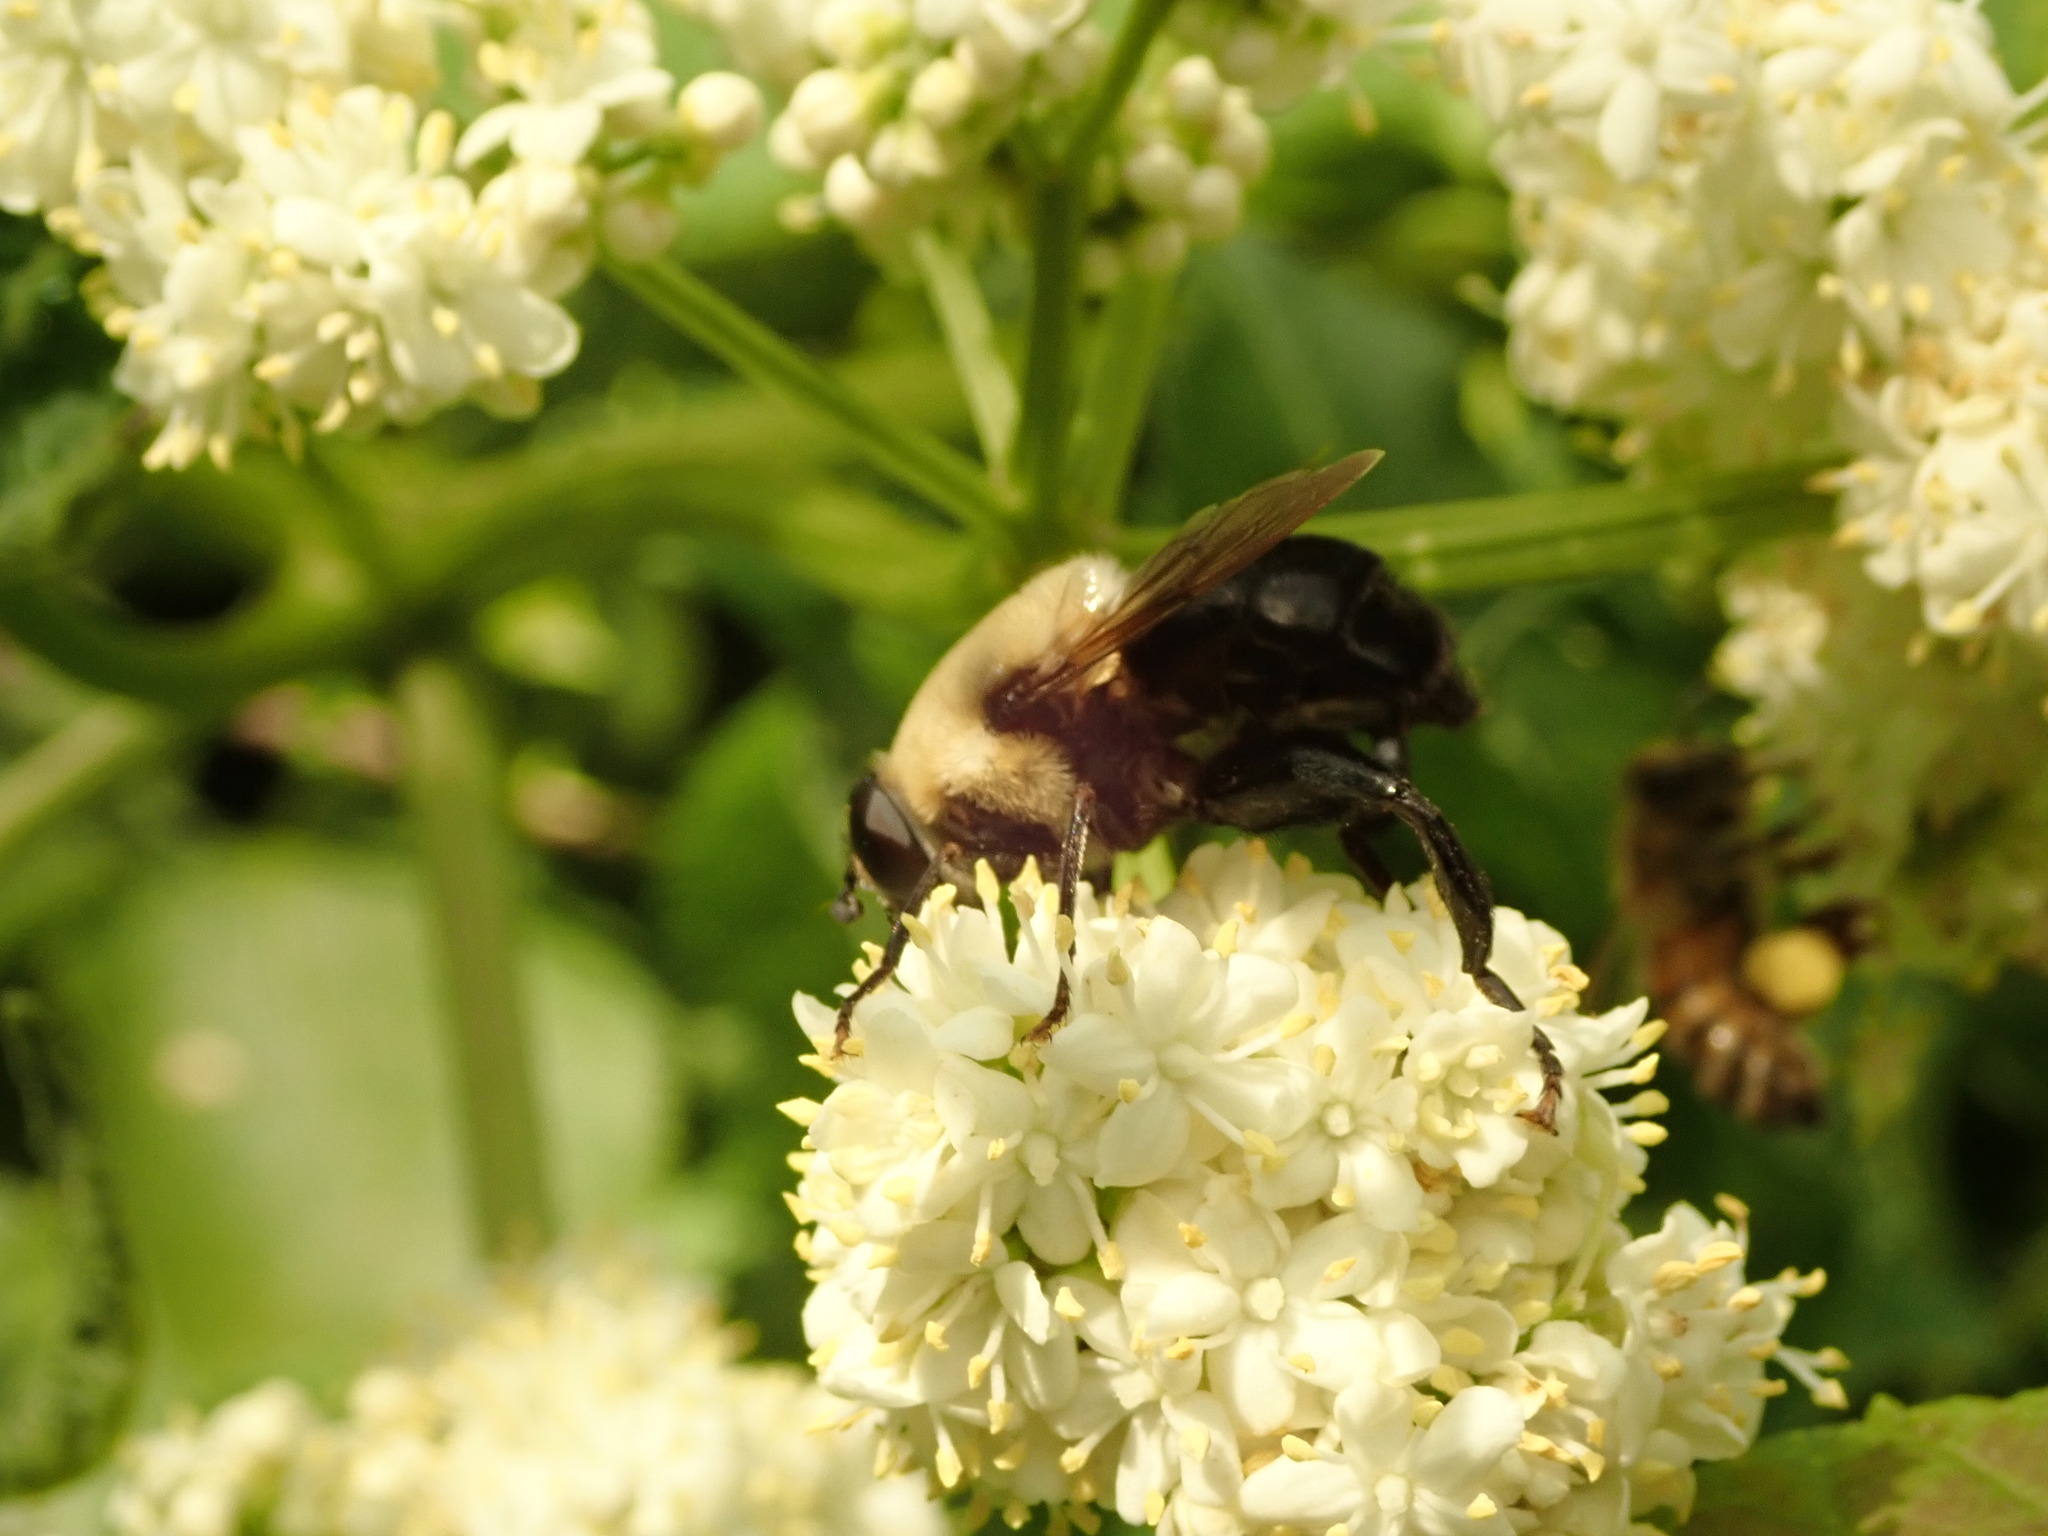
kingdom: Animalia
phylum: Arthropoda
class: Insecta
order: Diptera
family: Syrphidae
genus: Imatisma
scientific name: Imatisma bautias
